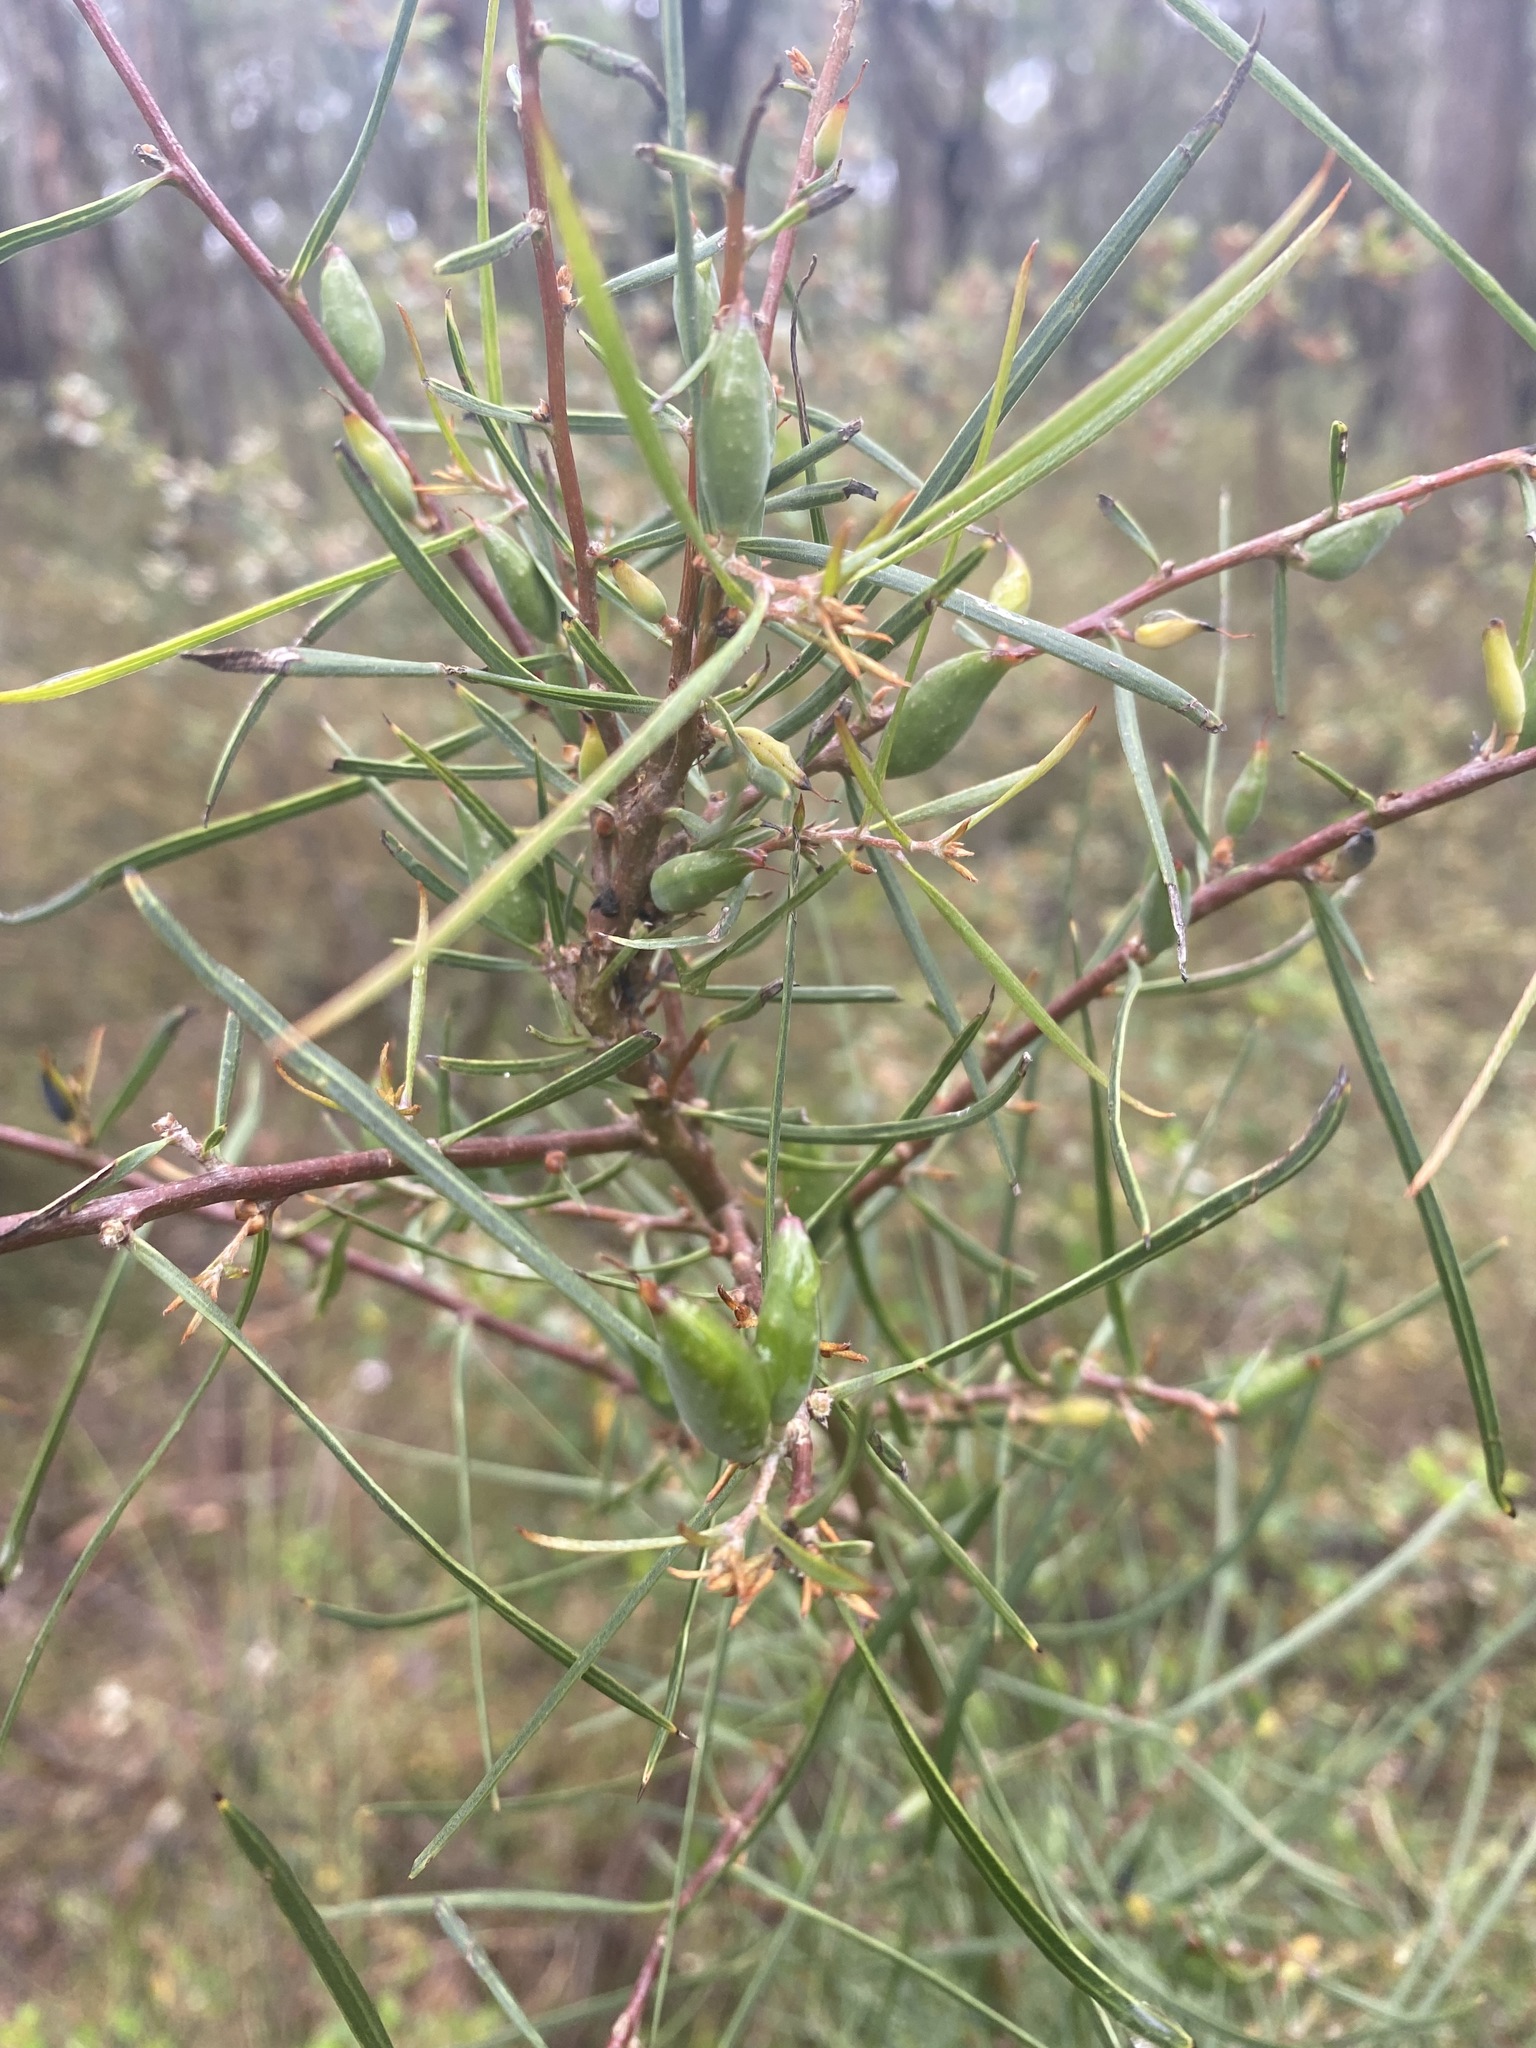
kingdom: Plantae
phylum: Tracheophyta
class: Magnoliopsida
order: Proteales
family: Proteaceae
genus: Hakea
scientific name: Hakea ulicina
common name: Furze hakea
